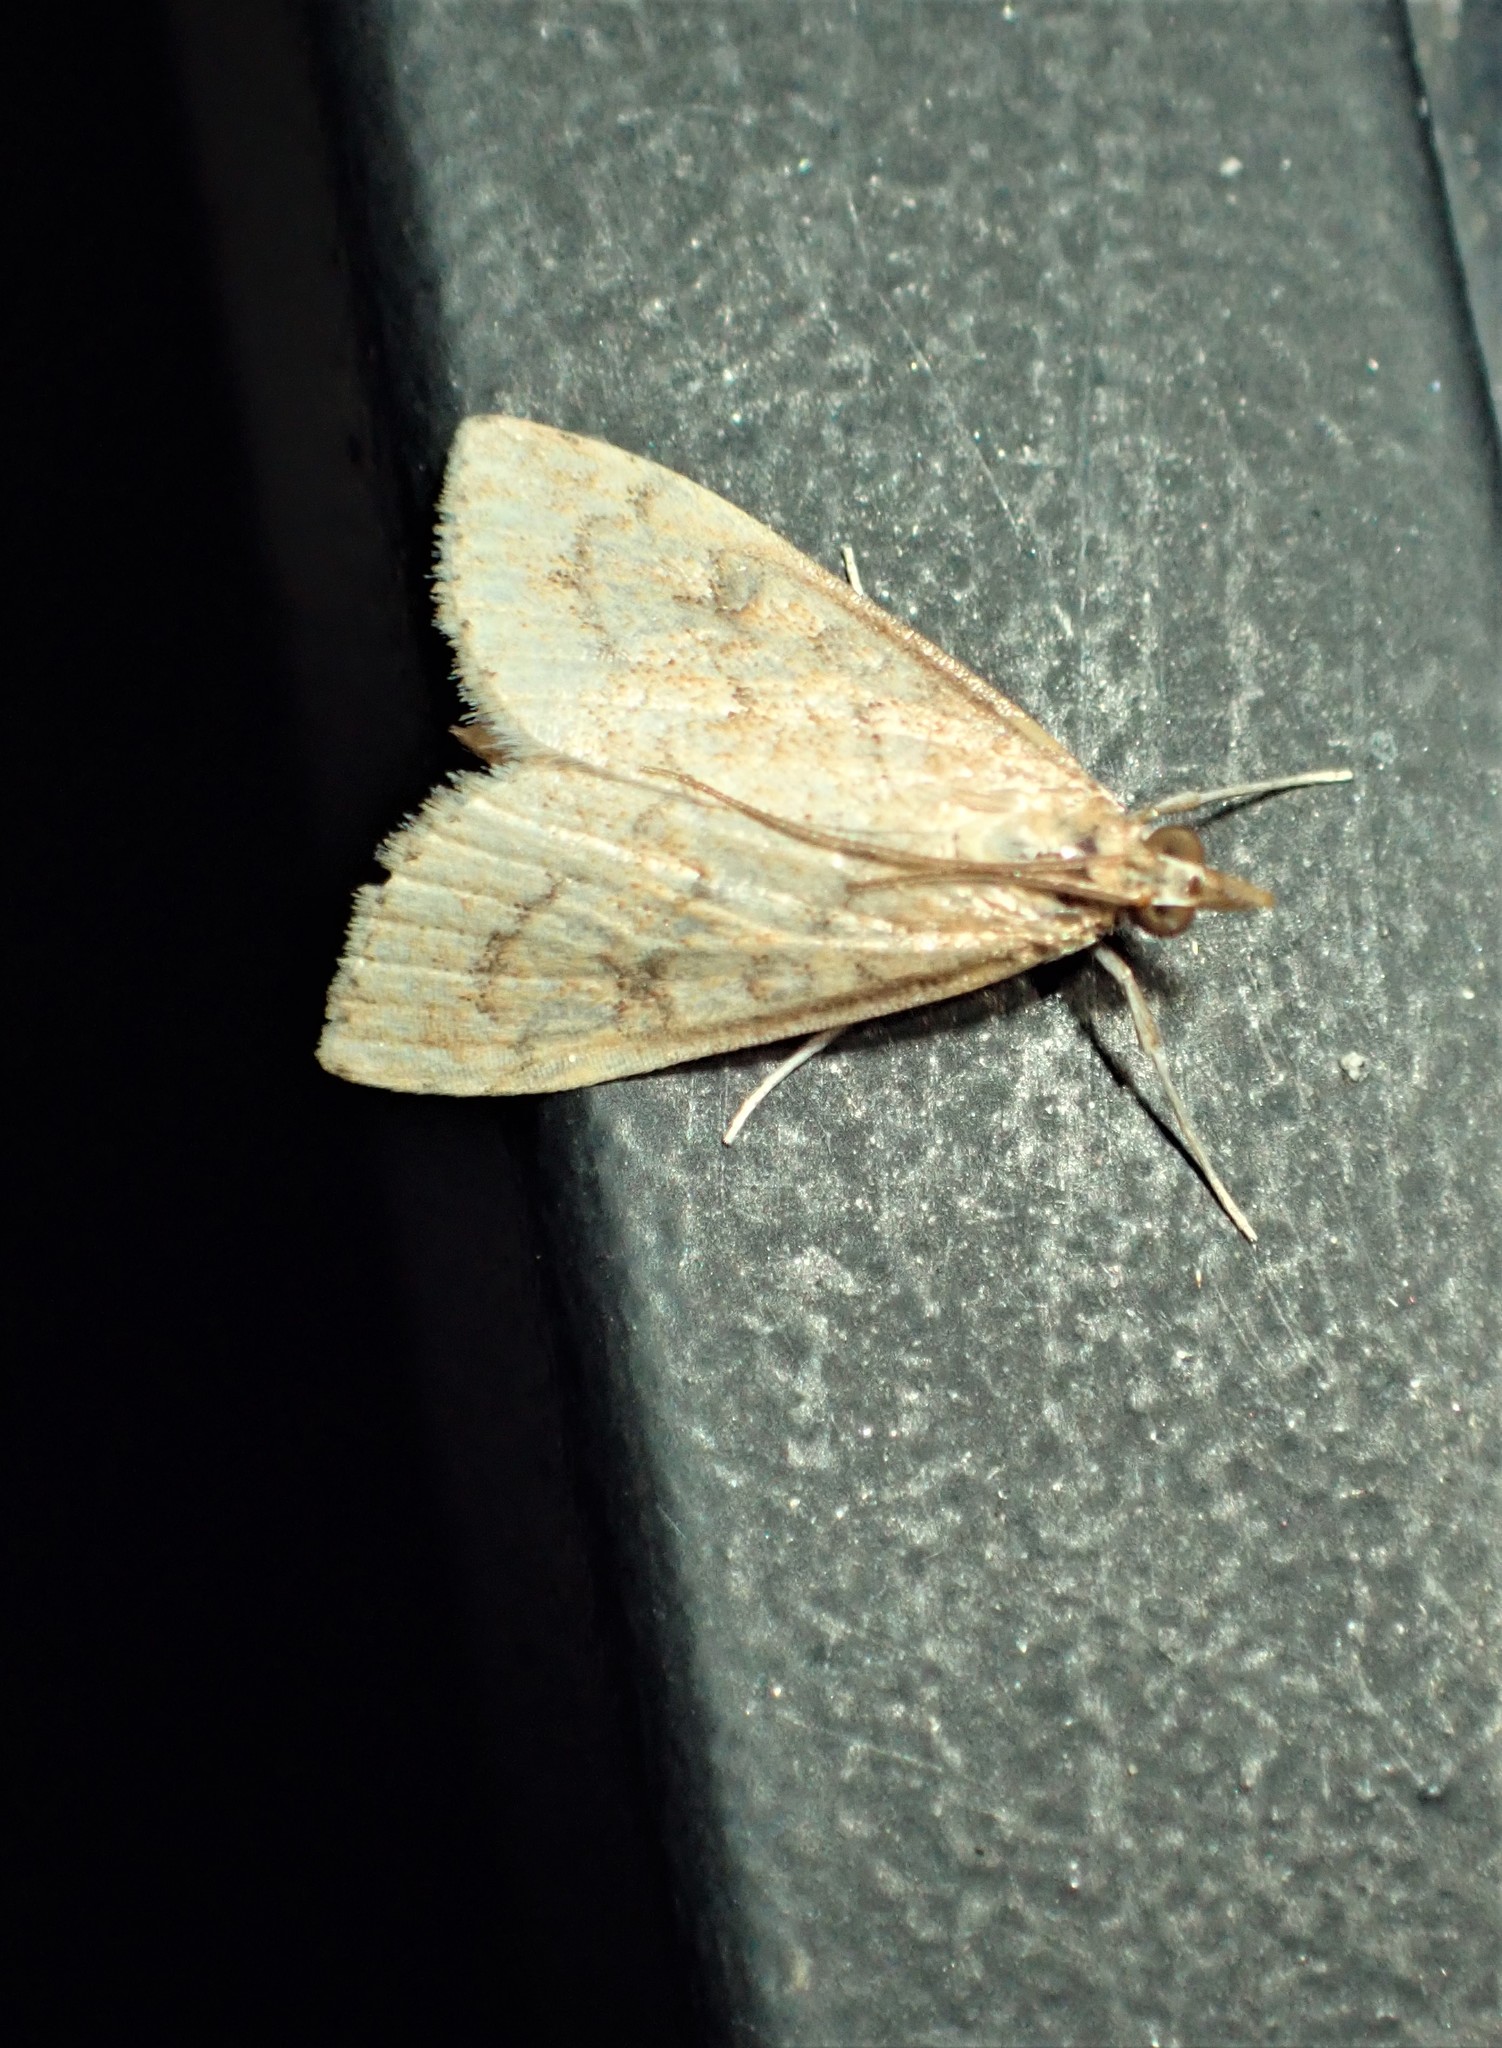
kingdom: Animalia
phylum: Arthropoda
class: Insecta
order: Lepidoptera
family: Crambidae
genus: Udea
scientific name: Udea rubigalis
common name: Celery leaftier moth
